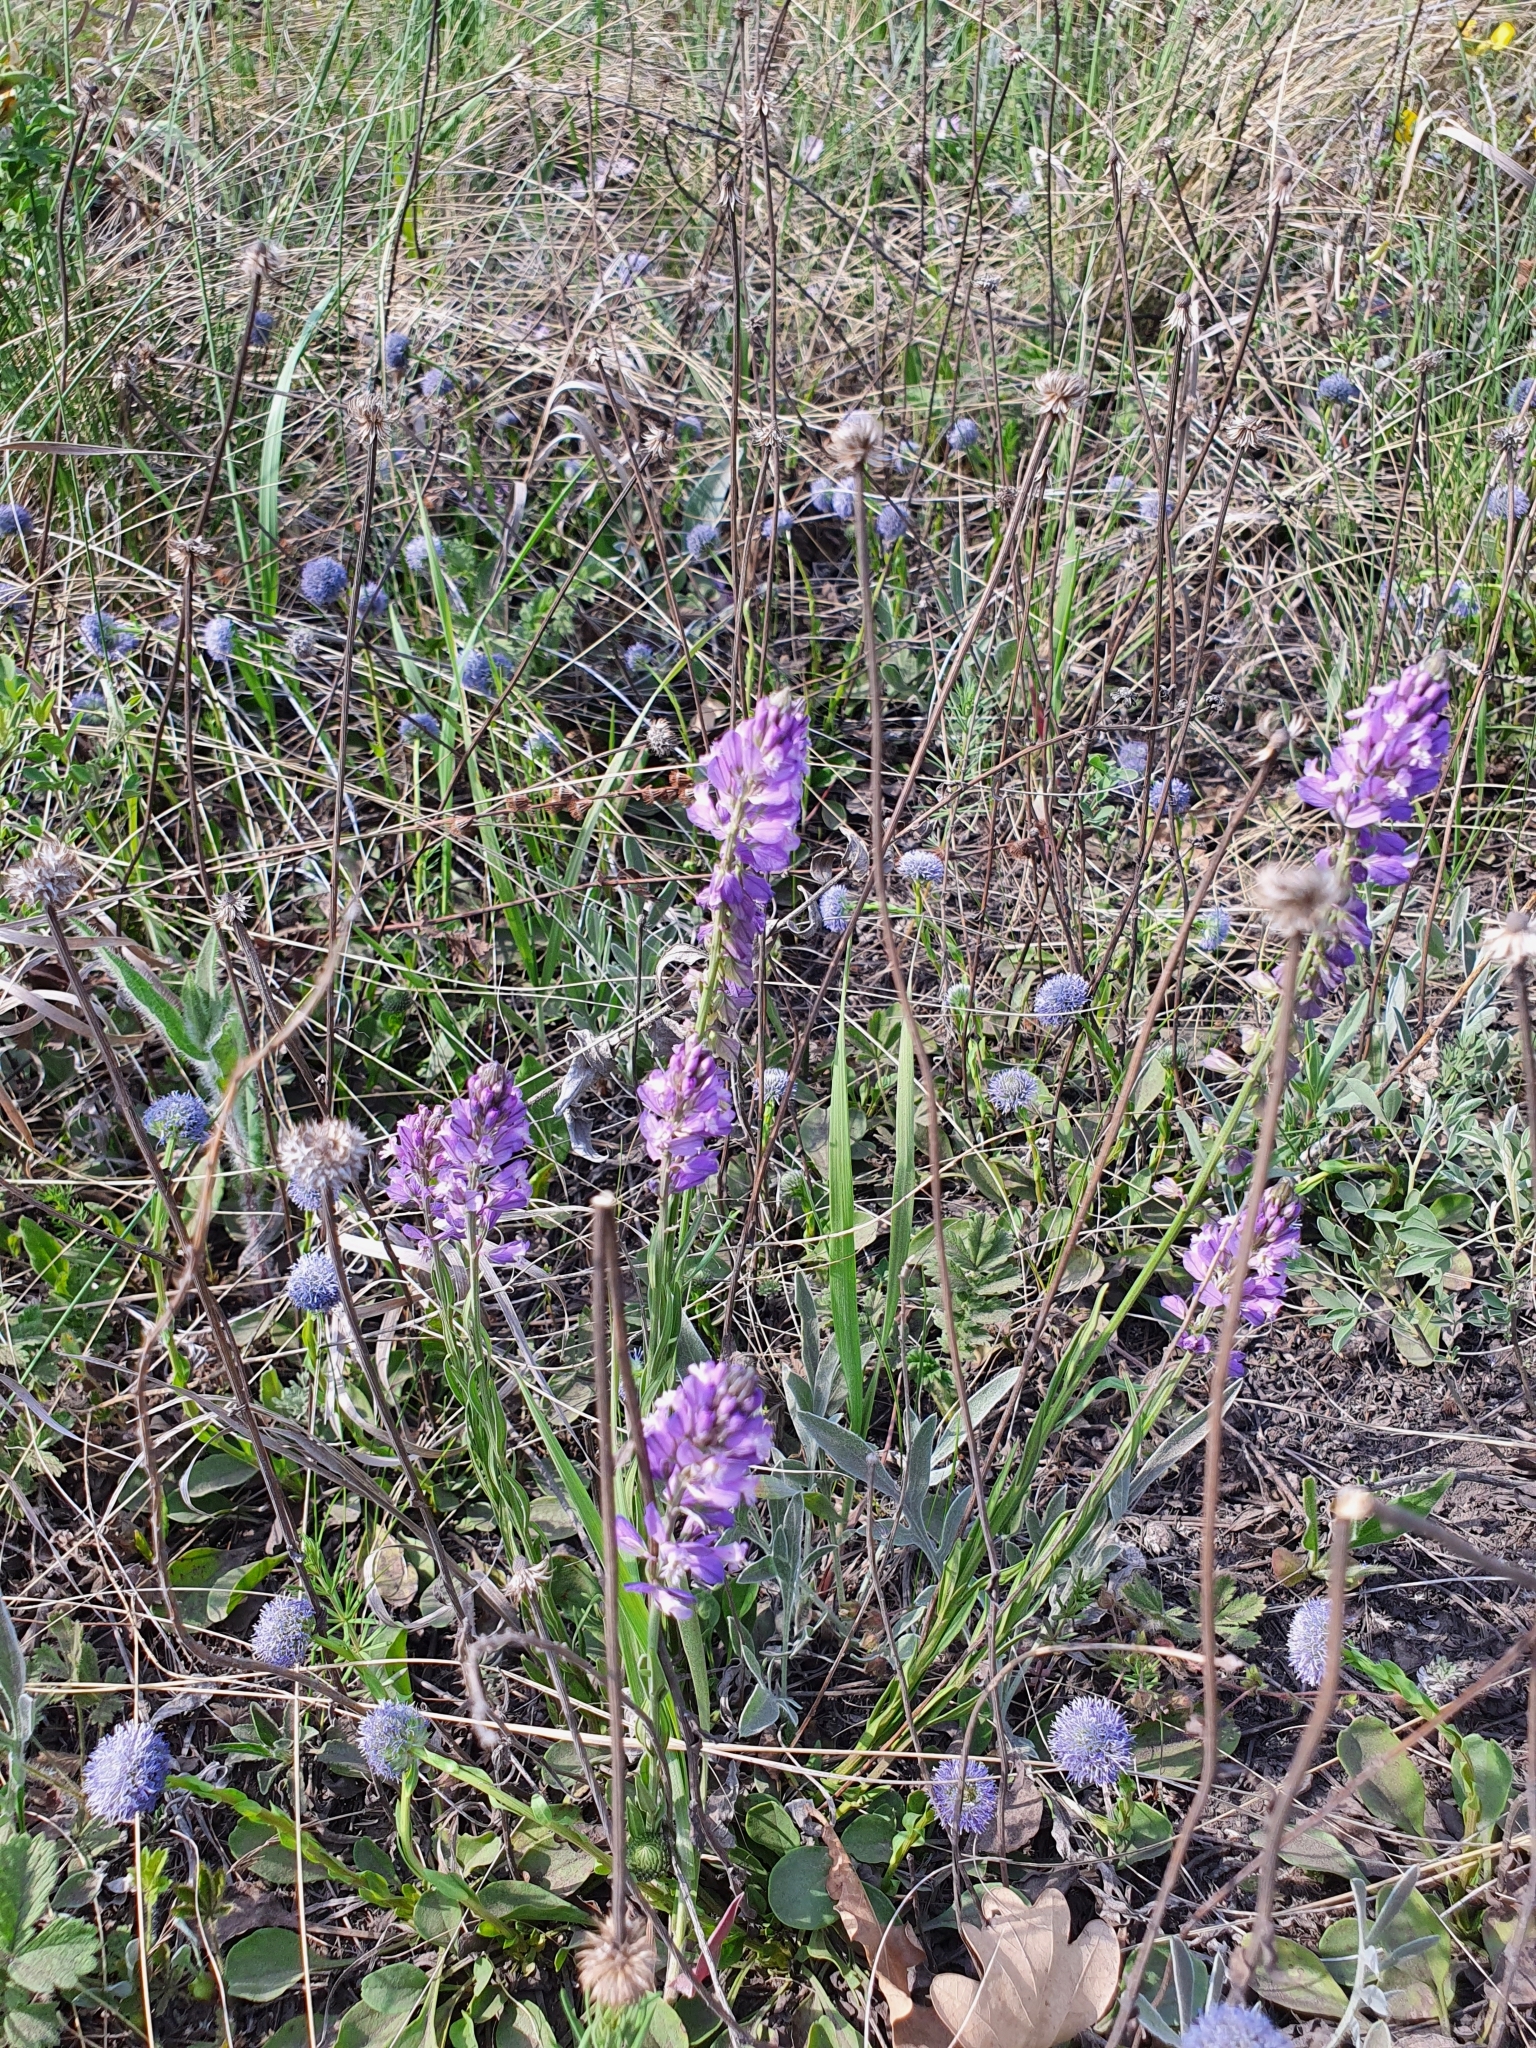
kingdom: Plantae
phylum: Tracheophyta
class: Magnoliopsida
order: Fabales
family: Polygalaceae
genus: Polygala
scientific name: Polygala comosa
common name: Tufted milkwort
